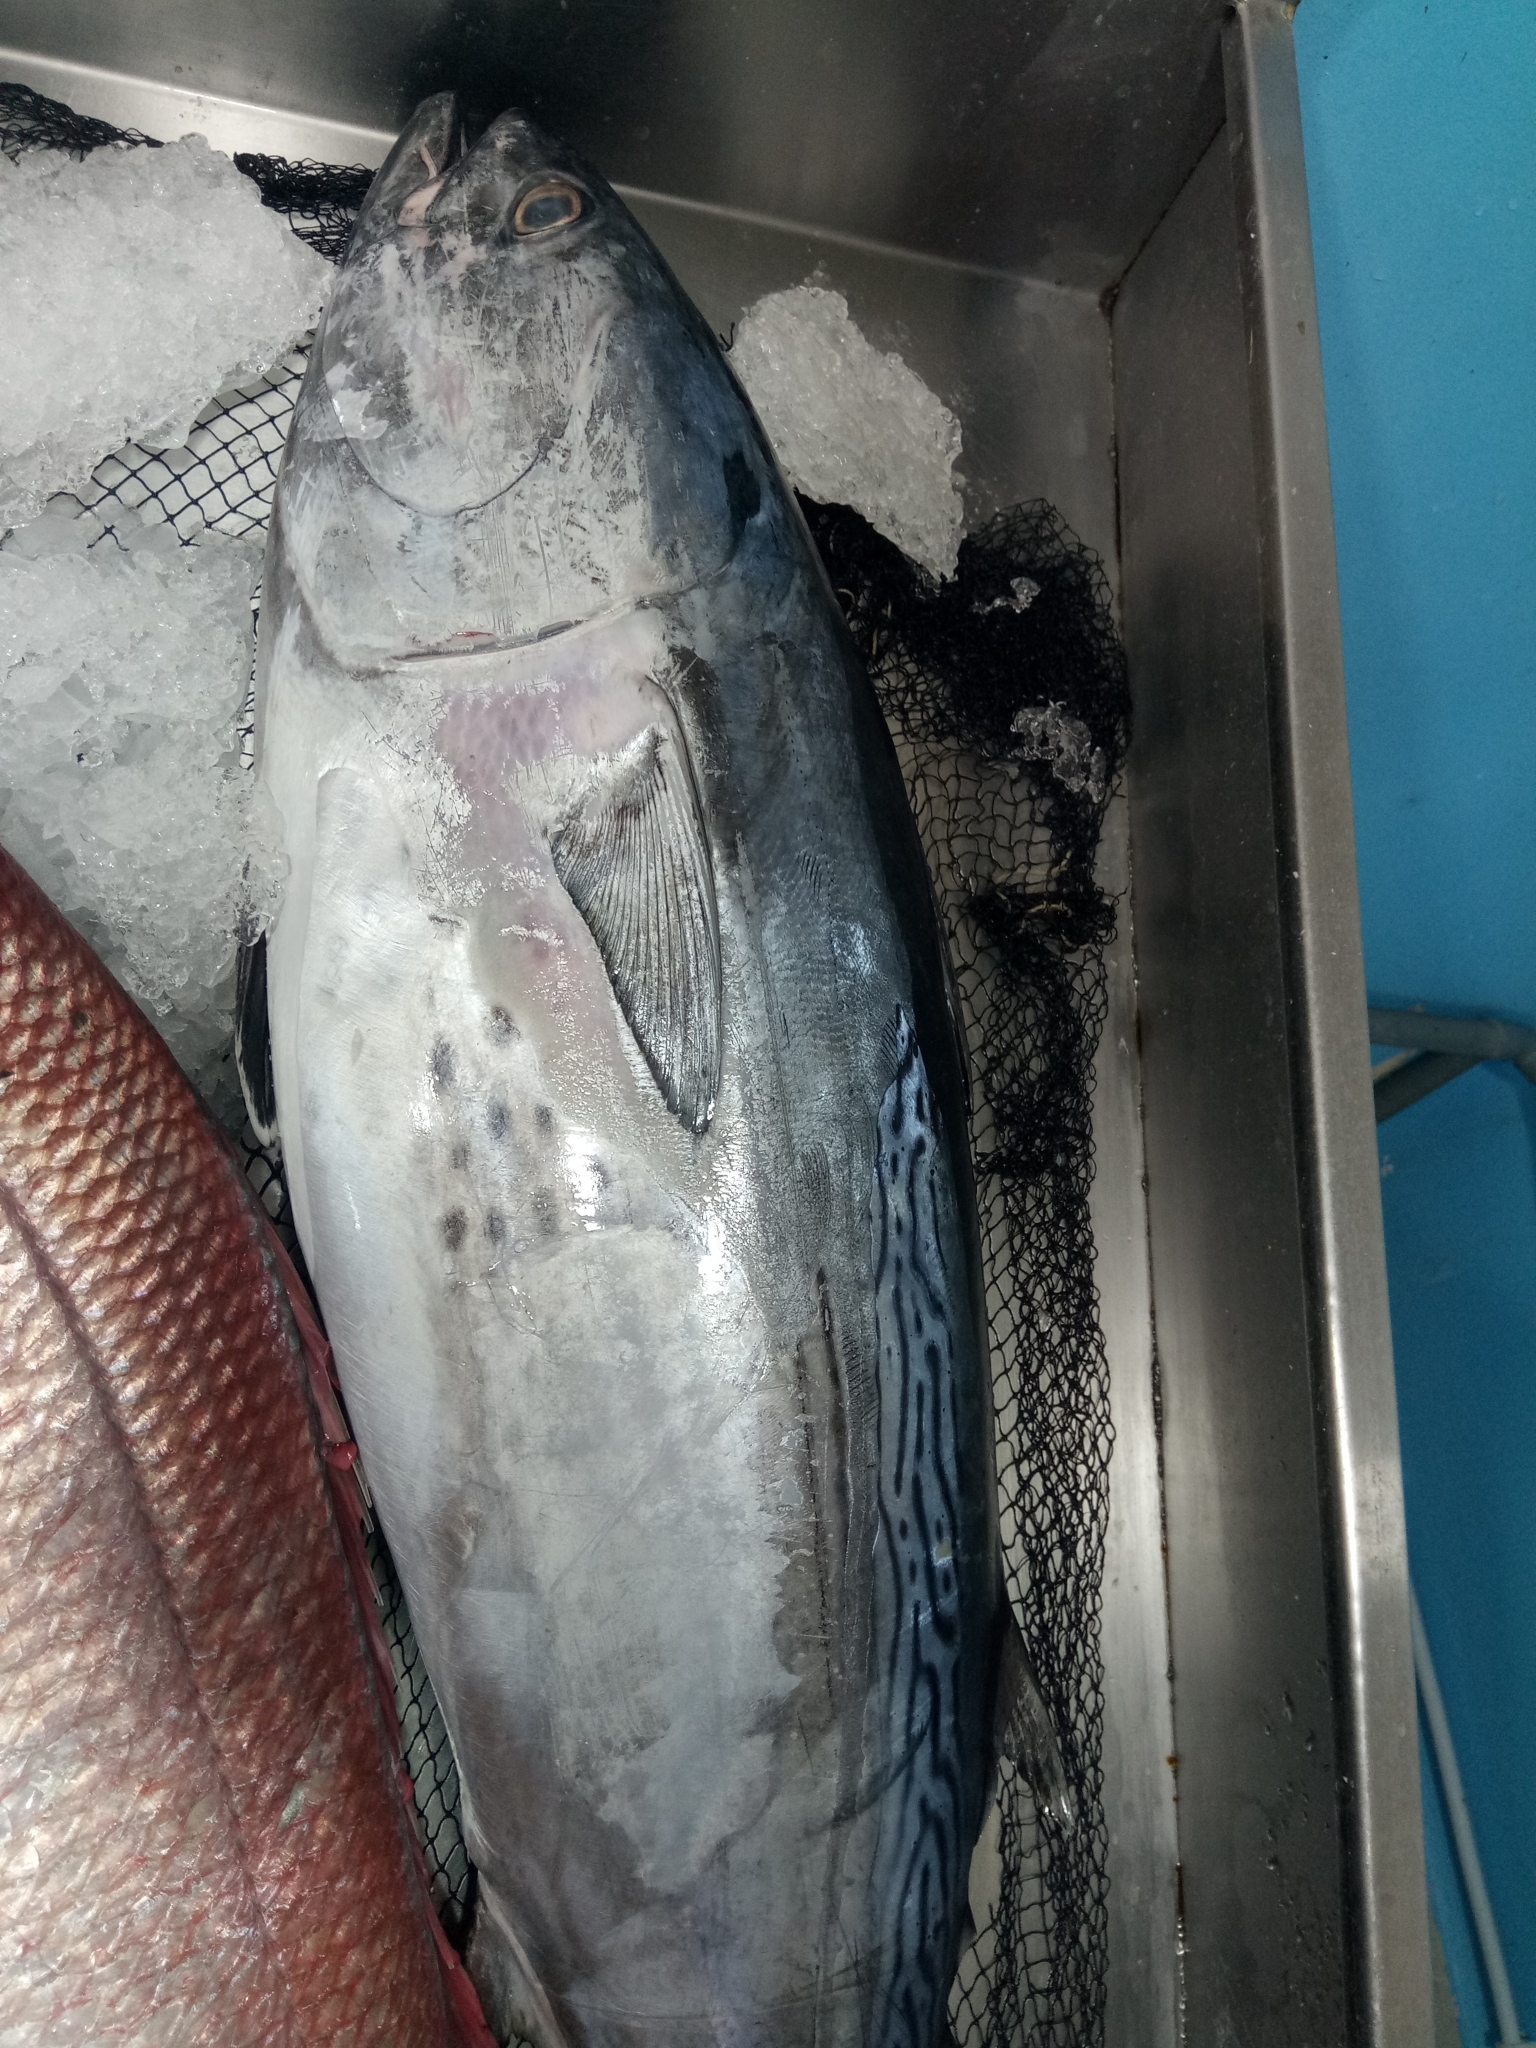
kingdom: Animalia
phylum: Chordata
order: Perciformes
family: Scombridae
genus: Euthynnus
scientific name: Euthynnus alletteratus
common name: Little tunny
